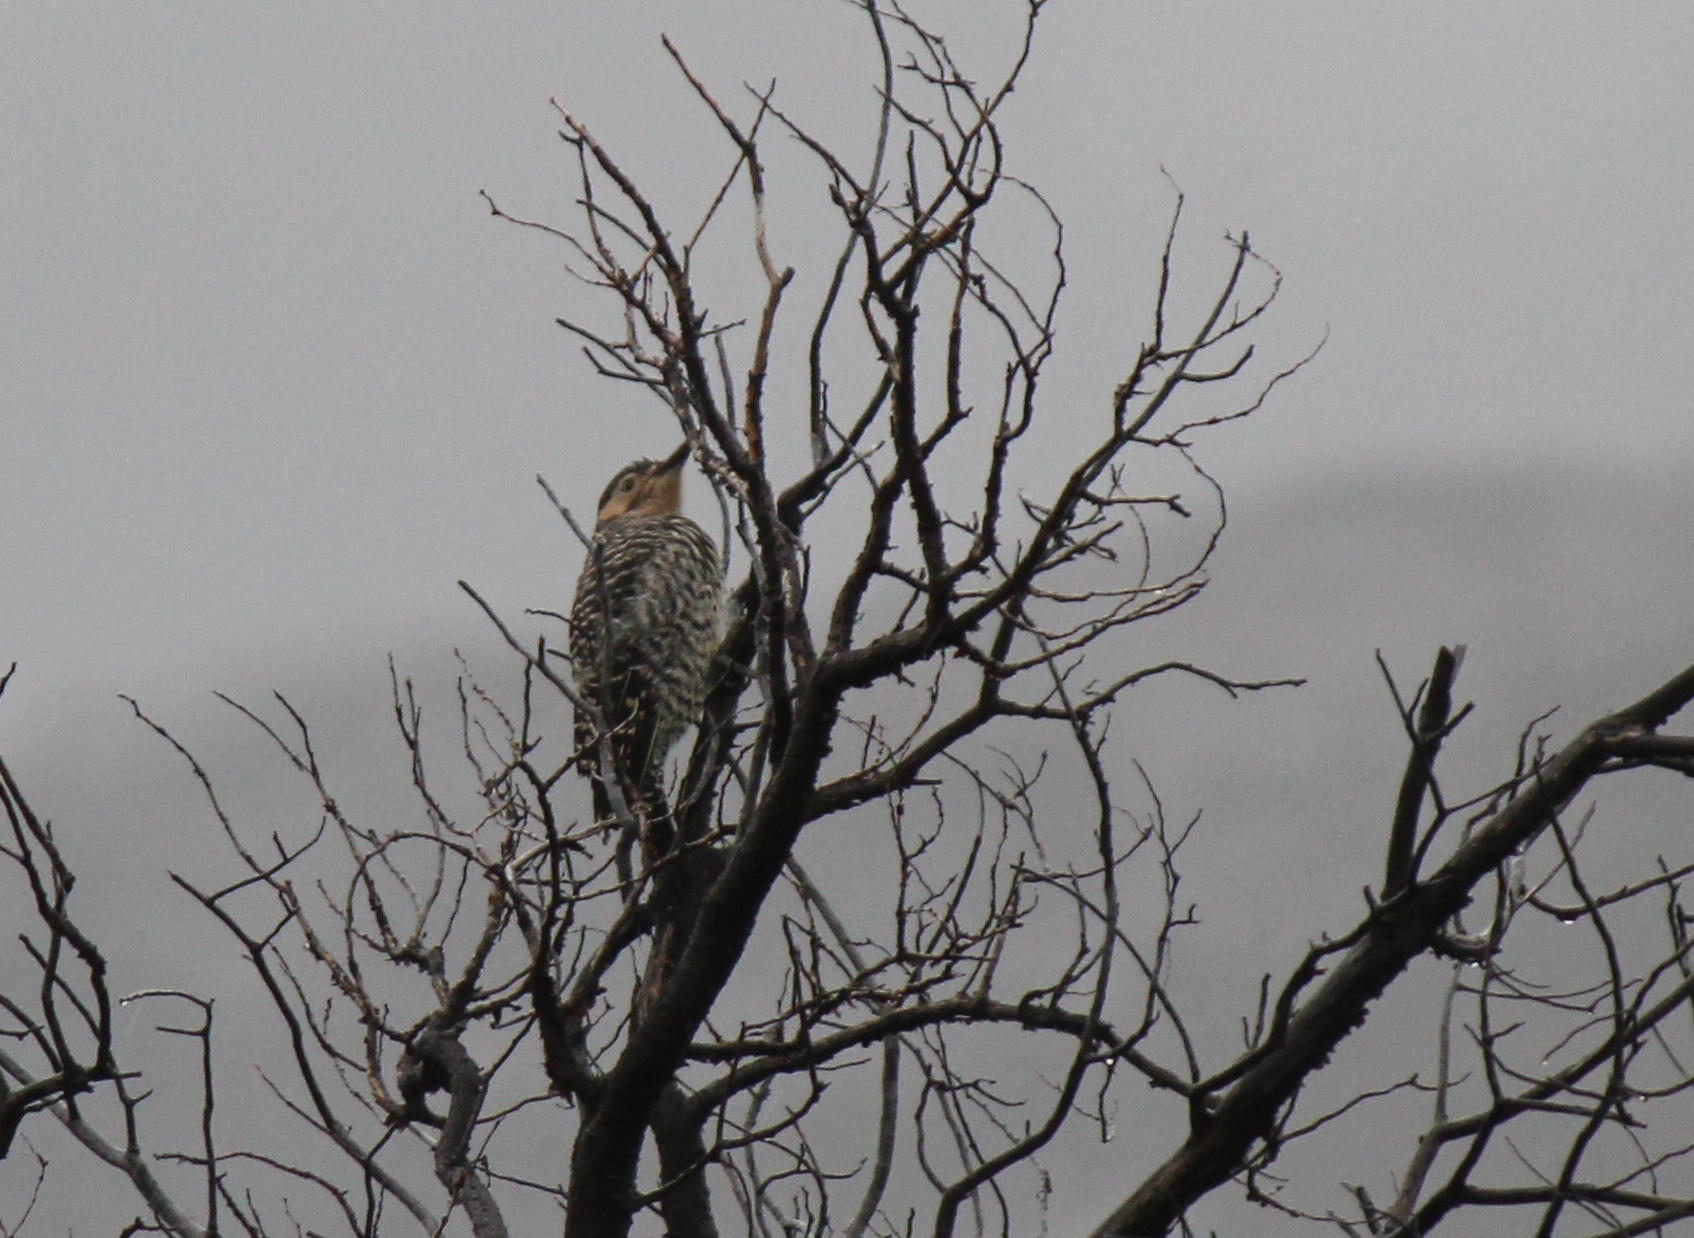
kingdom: Animalia
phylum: Chordata
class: Aves
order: Piciformes
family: Picidae
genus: Colaptes
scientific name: Colaptes pitius
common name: Chilean flicker
